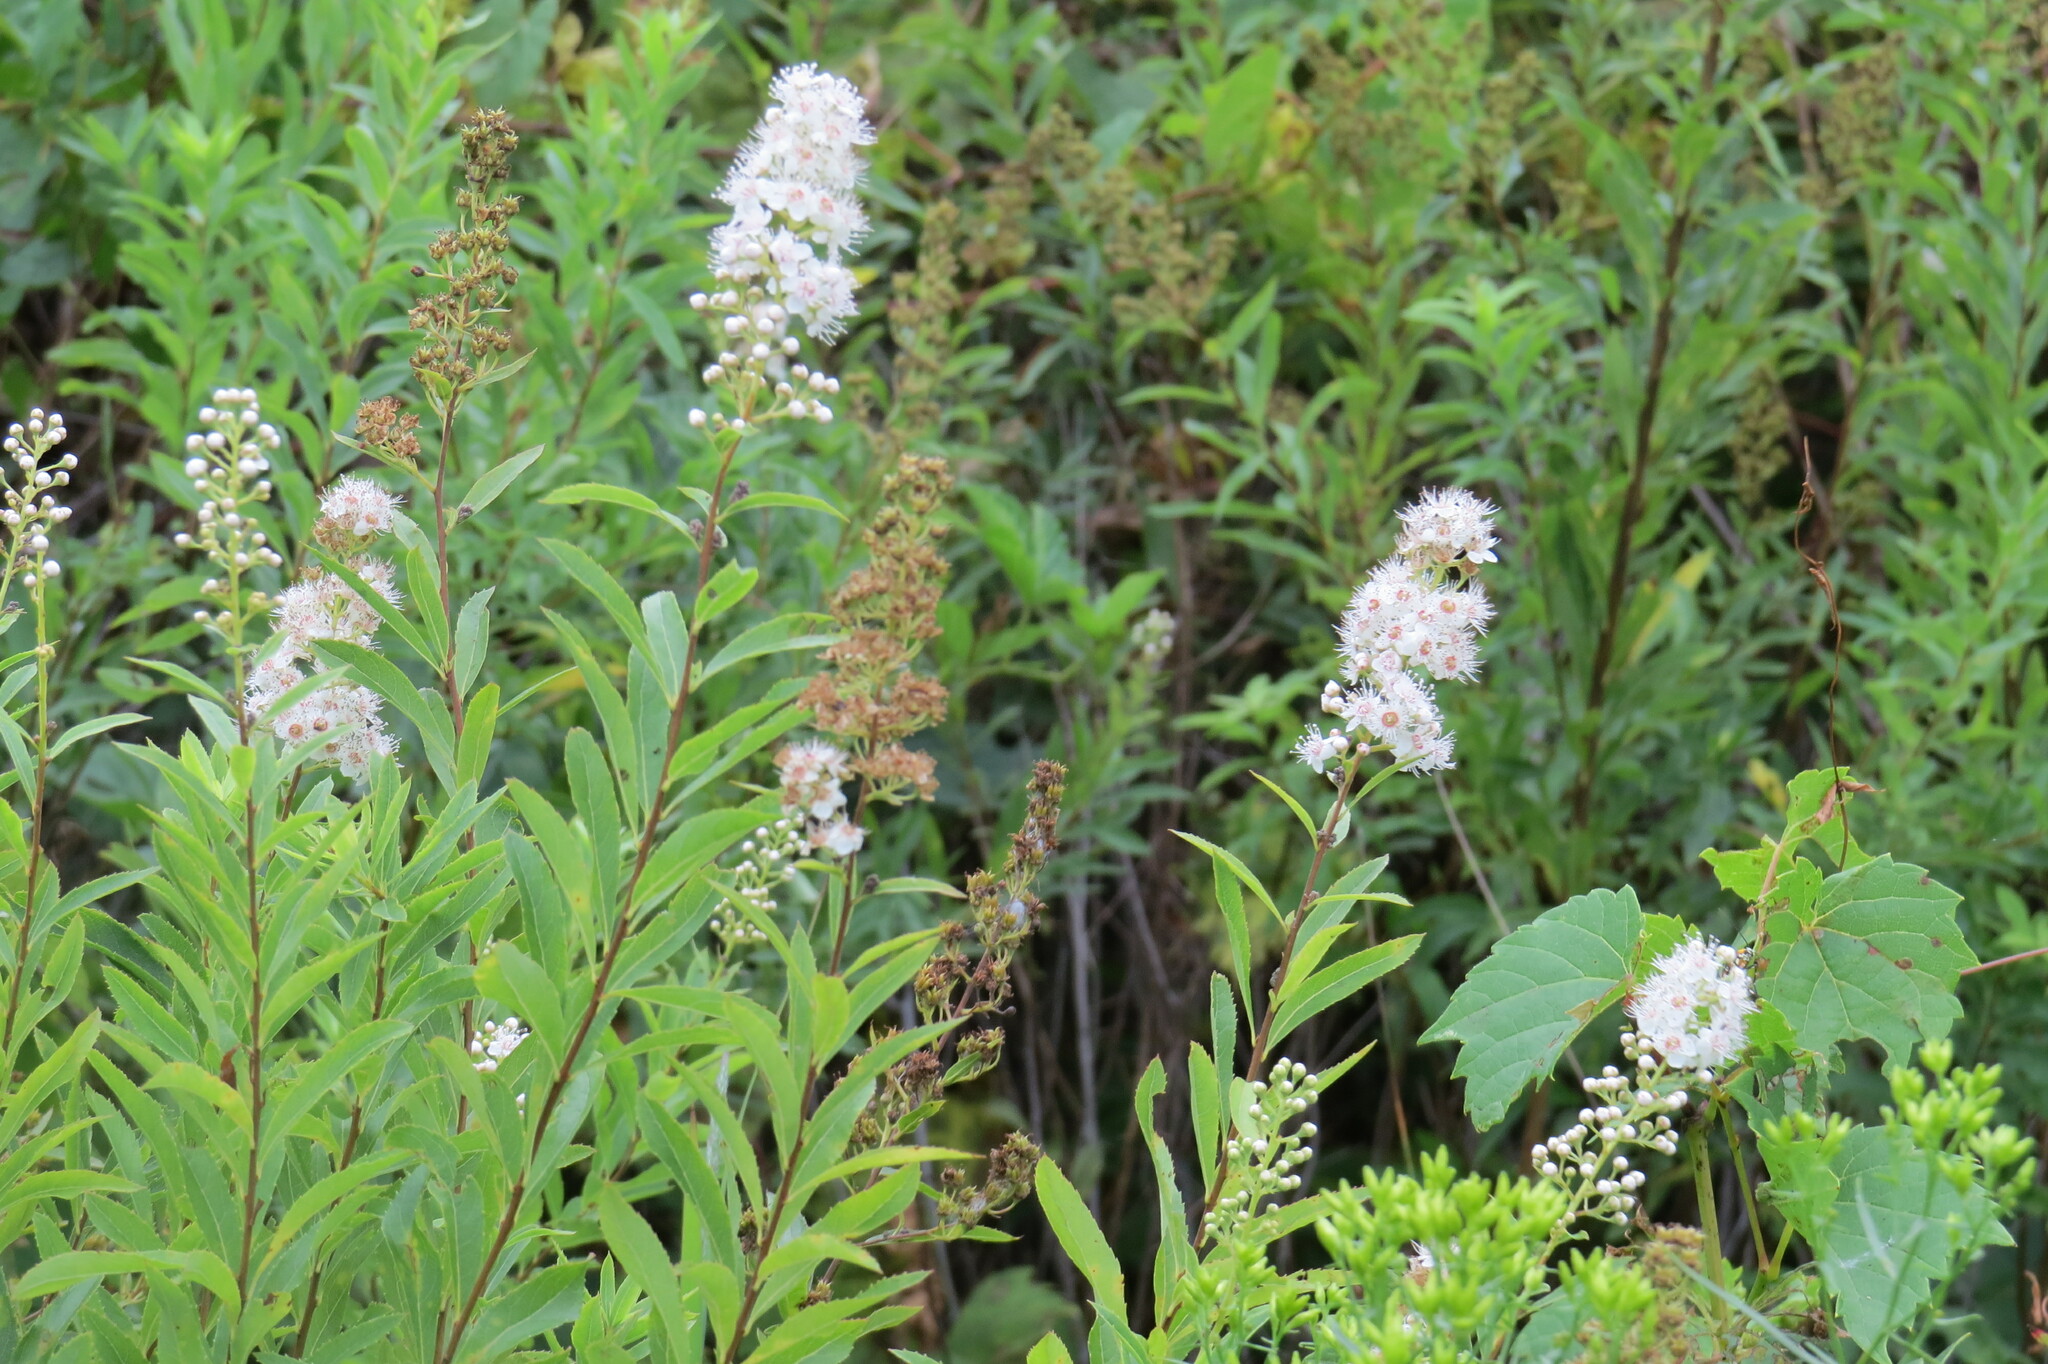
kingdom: Plantae
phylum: Tracheophyta
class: Magnoliopsida
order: Rosales
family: Rosaceae
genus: Spiraea
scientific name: Spiraea alba
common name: Pale bridewort
